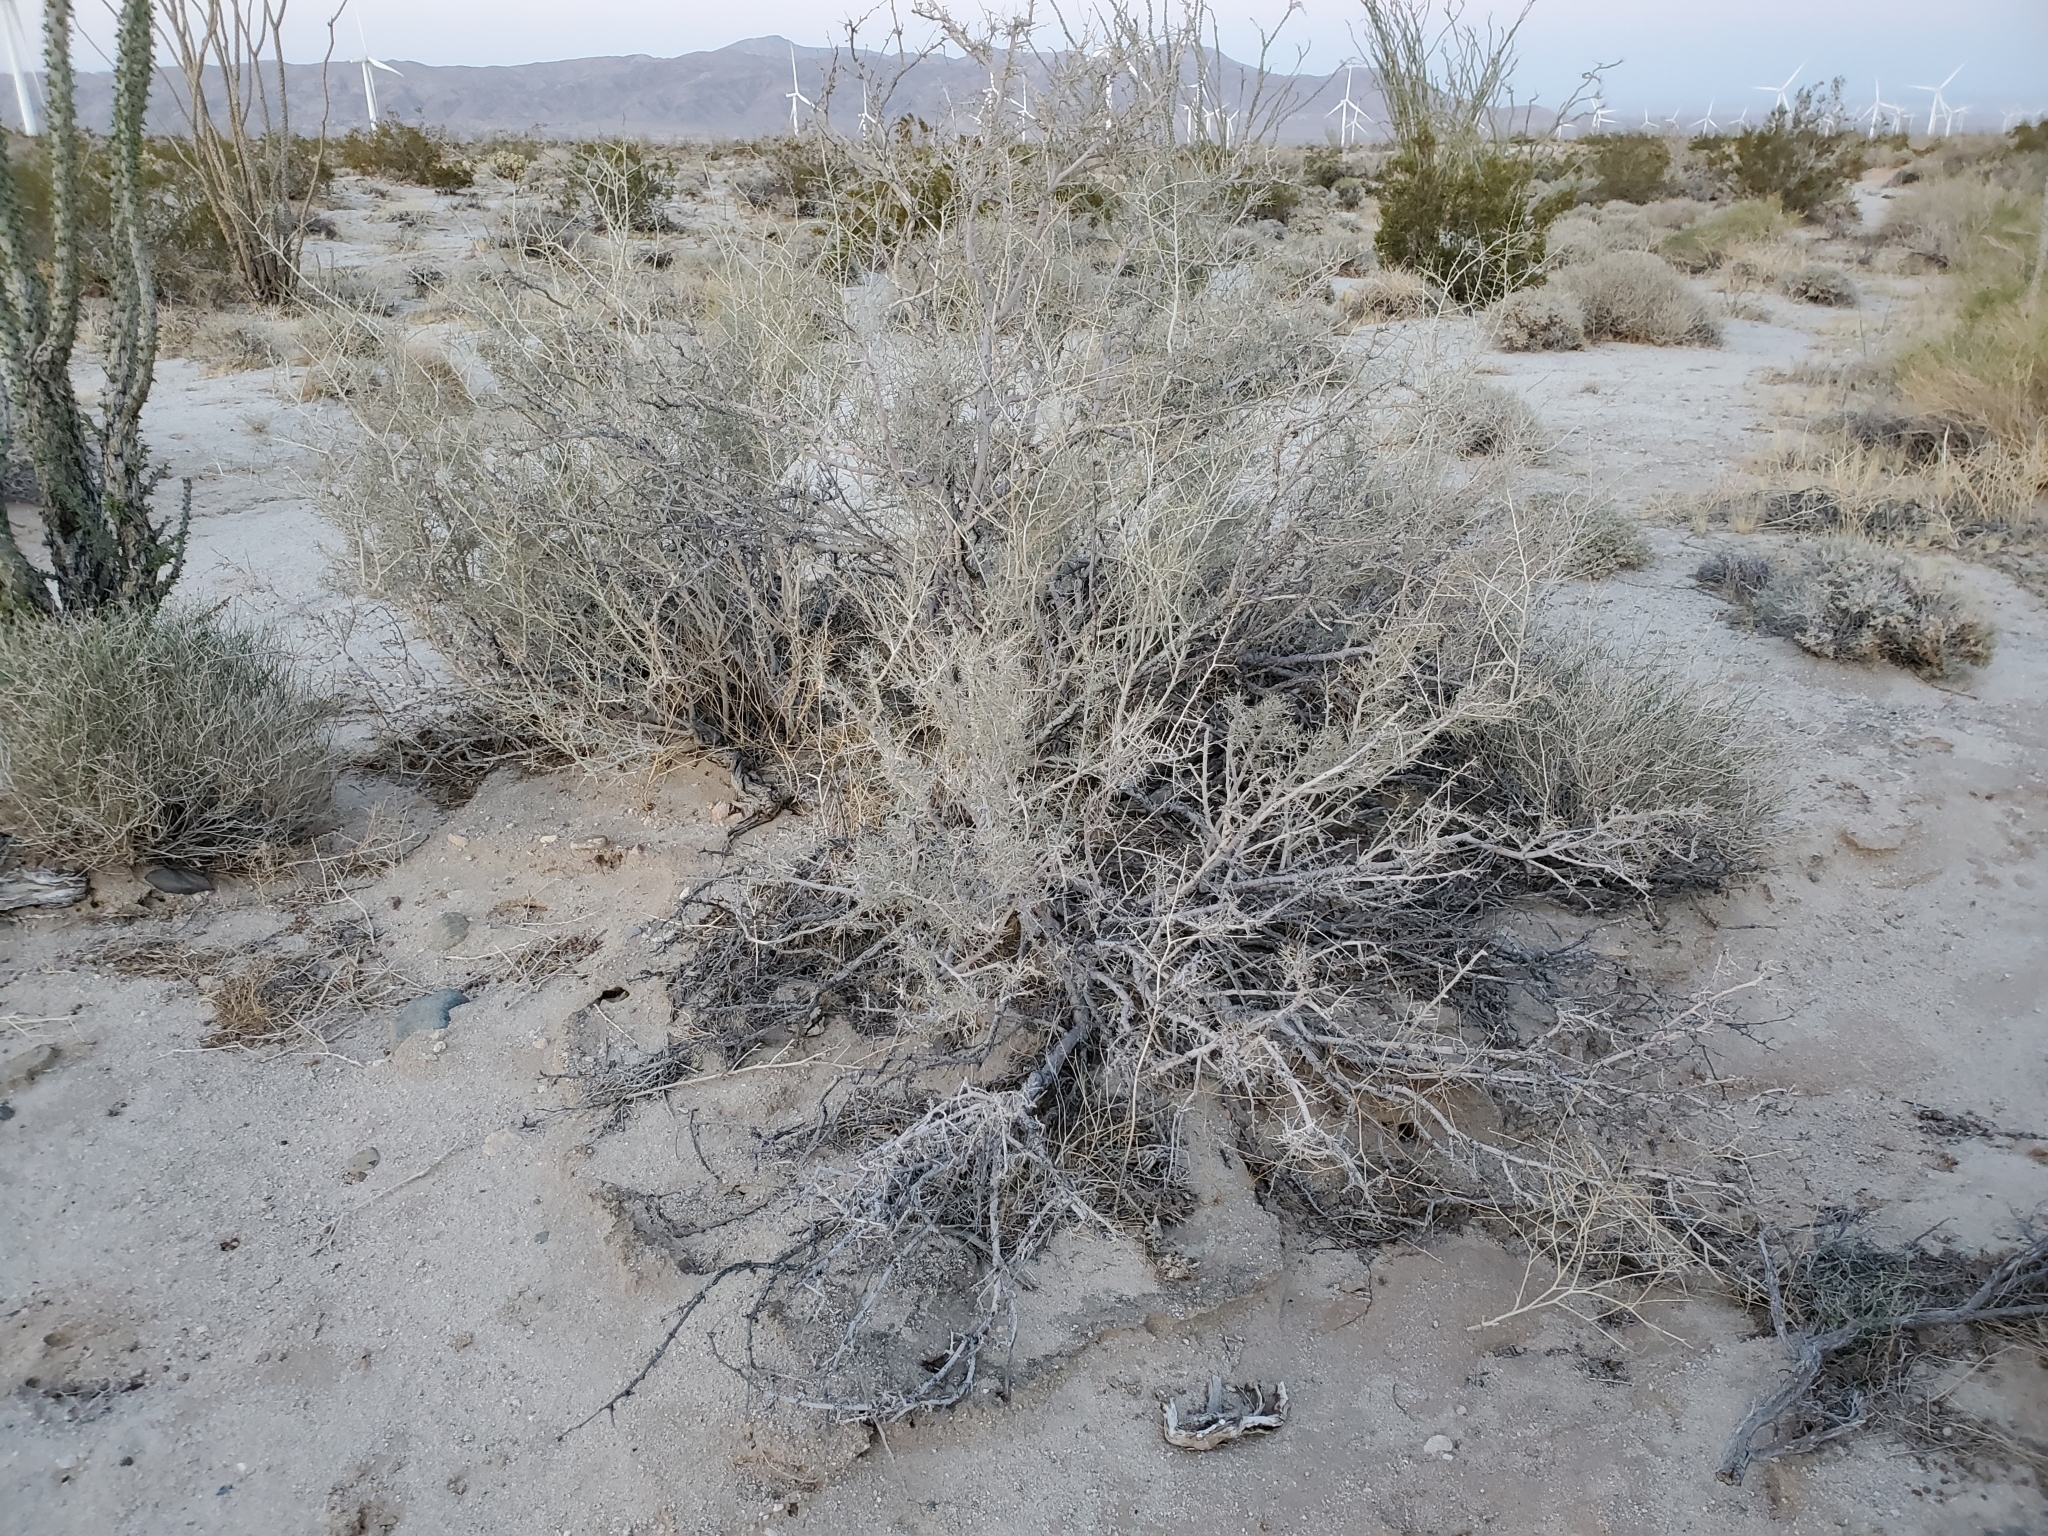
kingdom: Plantae
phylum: Tracheophyta
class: Magnoliopsida
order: Fabales
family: Fabaceae
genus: Psorothamnus
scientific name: Psorothamnus schottii
